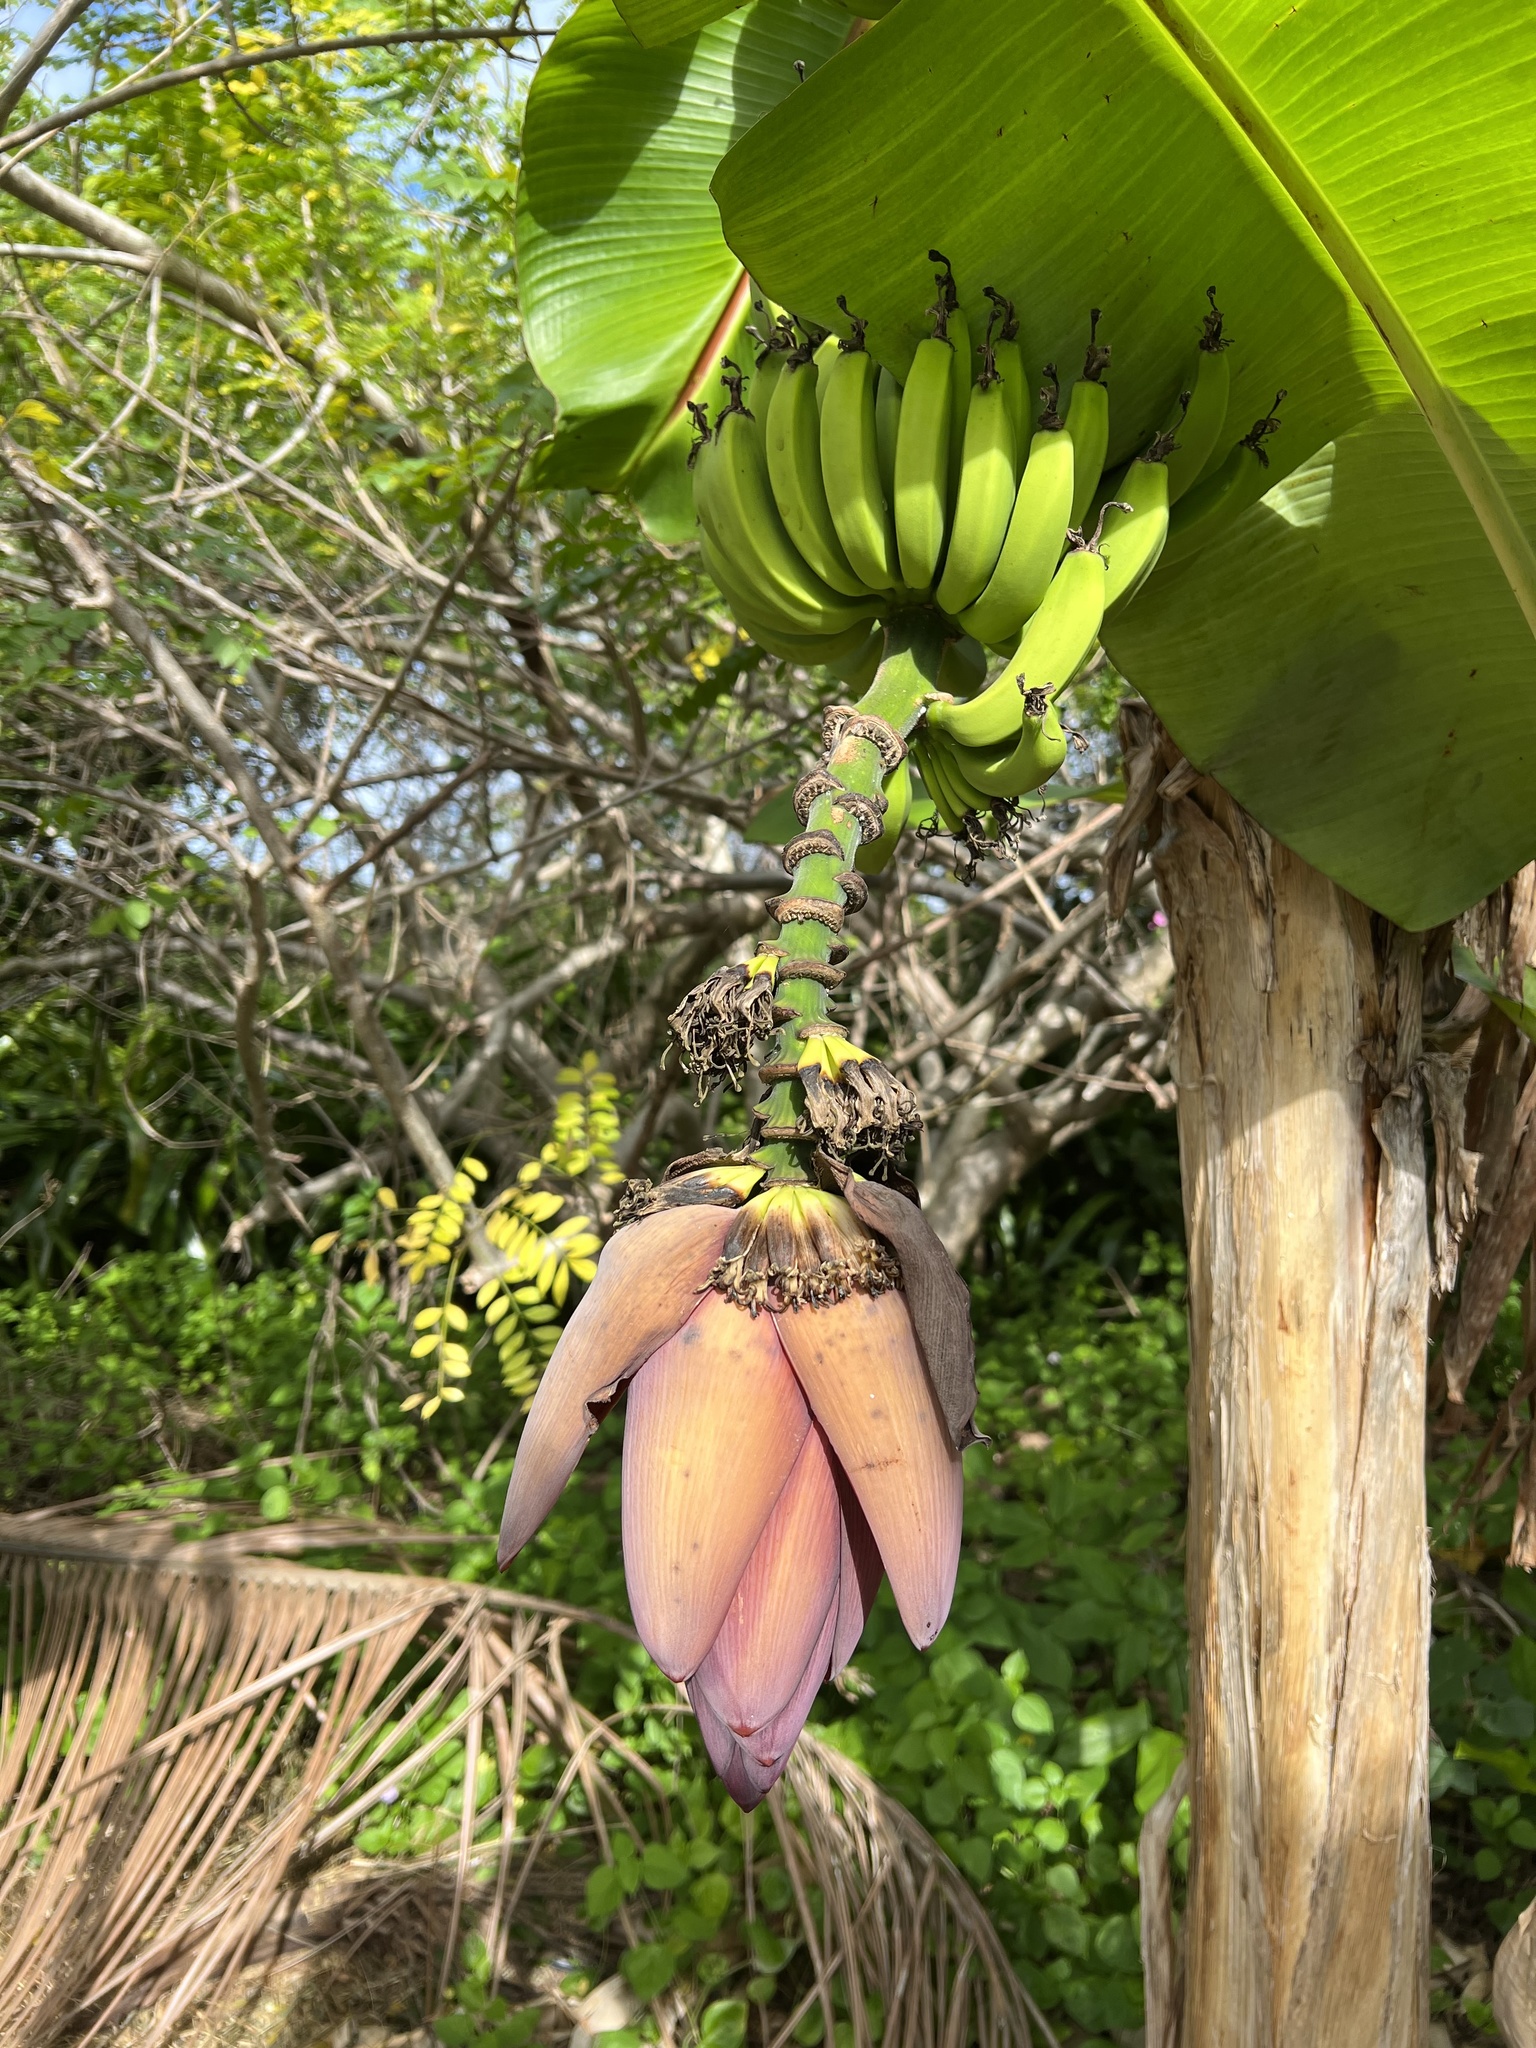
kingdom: Plantae
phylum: Tracheophyta
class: Liliopsida
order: Zingiberales
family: Musaceae
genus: Musa
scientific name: Musa acuminata
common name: Edible banana
